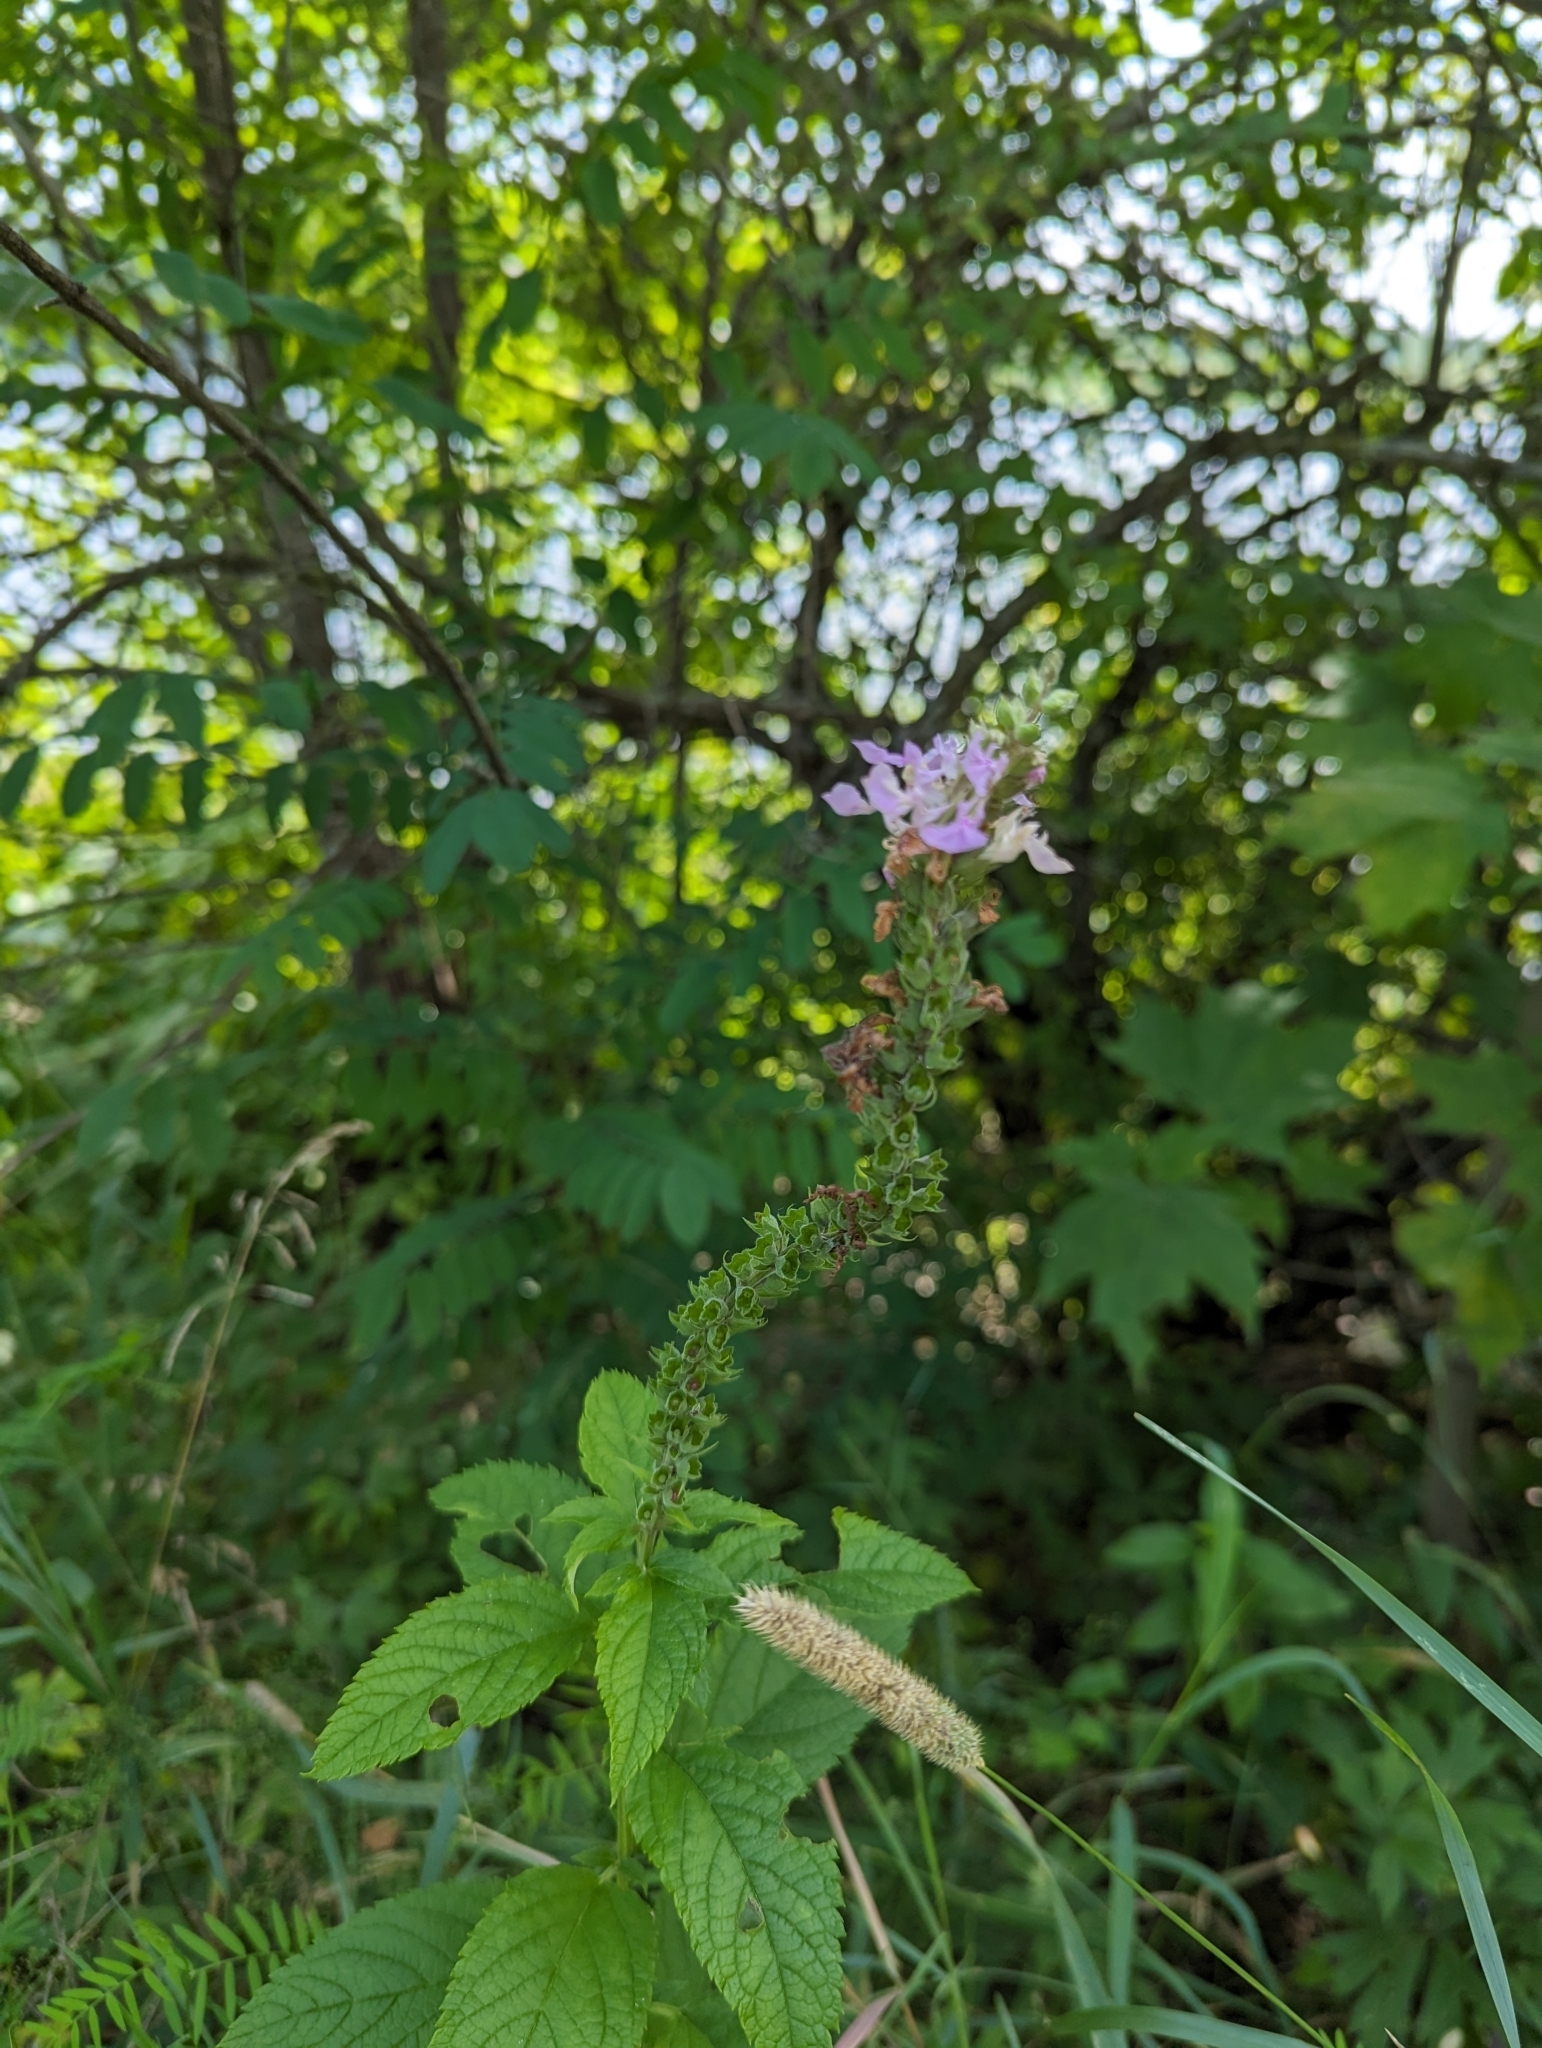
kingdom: Plantae
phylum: Tracheophyta
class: Magnoliopsida
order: Lamiales
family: Lamiaceae
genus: Teucrium
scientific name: Teucrium canadense
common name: American germander
